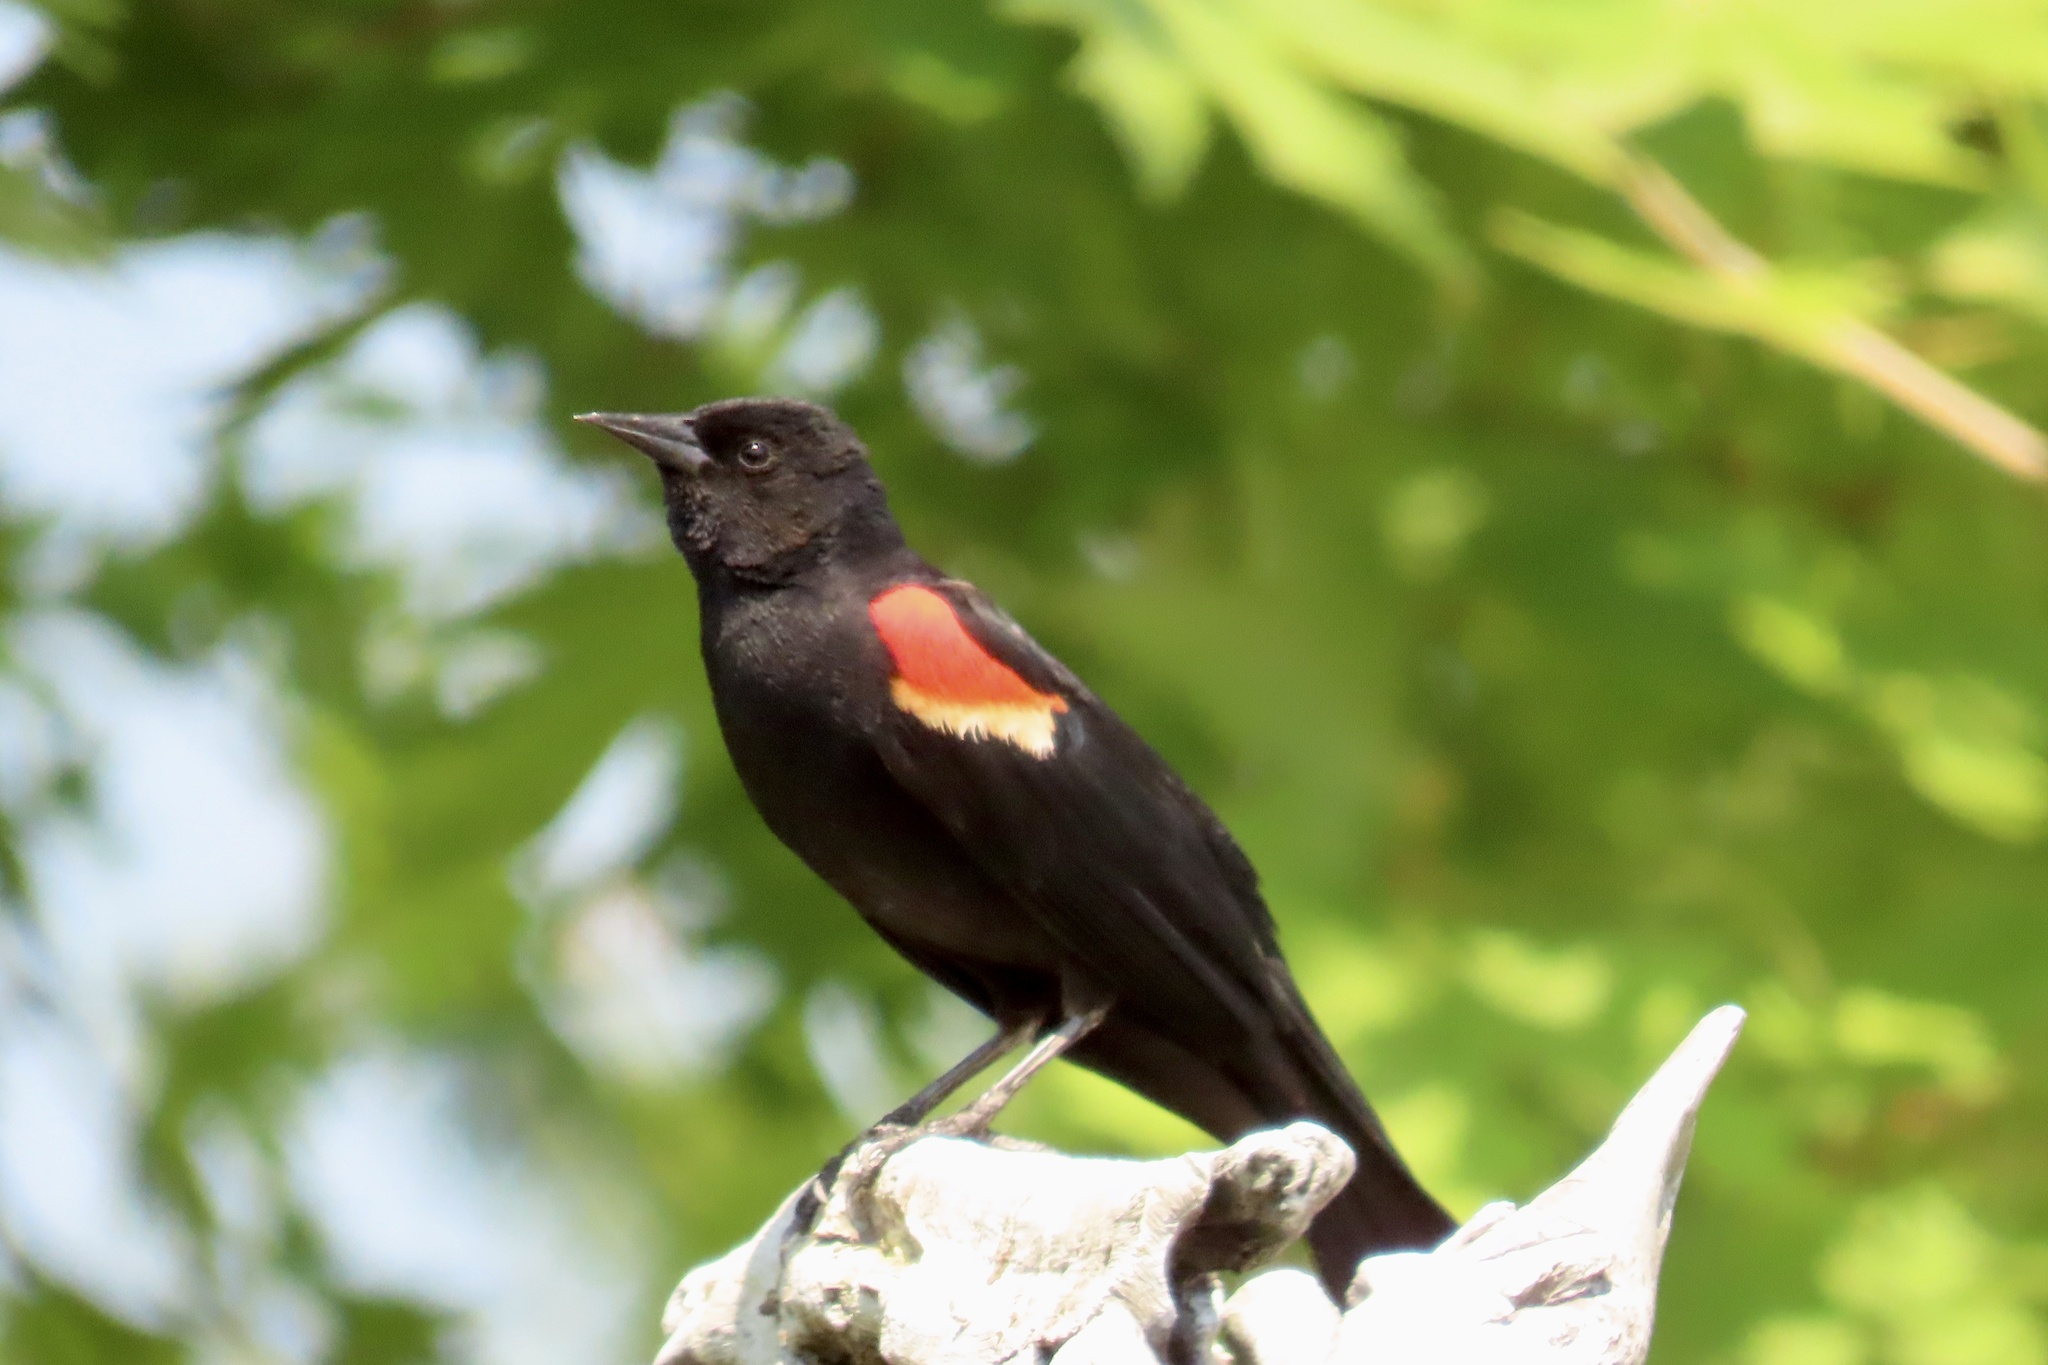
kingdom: Animalia
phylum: Chordata
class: Aves
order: Passeriformes
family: Icteridae
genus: Agelaius
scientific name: Agelaius phoeniceus
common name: Red-winged blackbird
